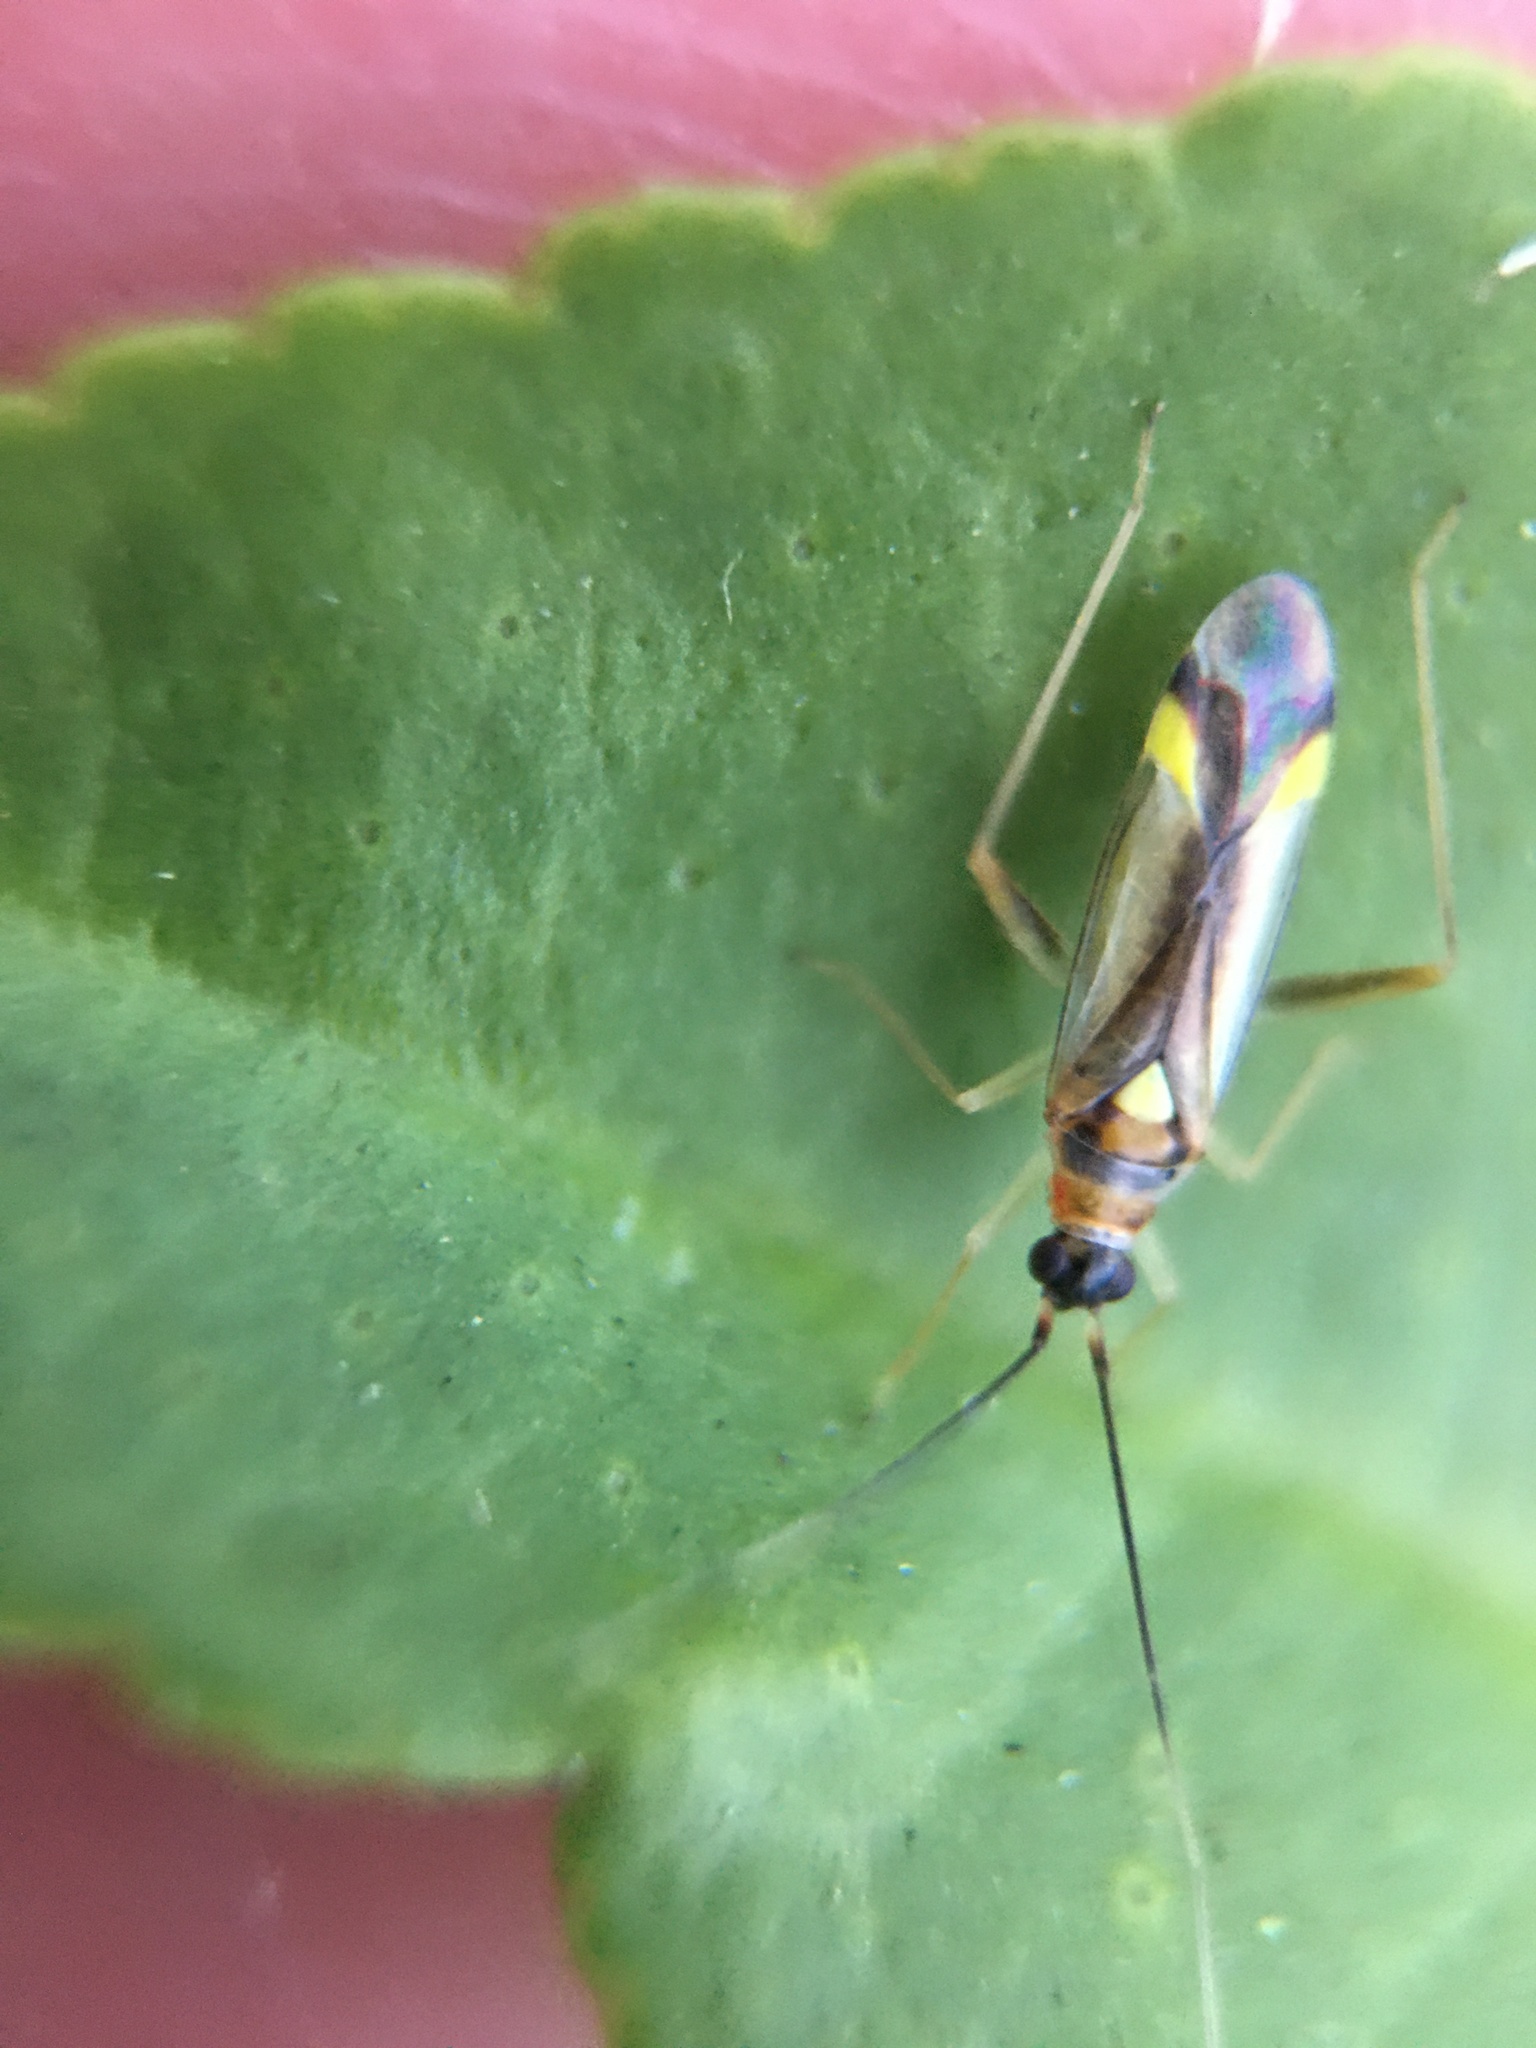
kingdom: Animalia
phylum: Arthropoda
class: Insecta
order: Hemiptera
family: Miridae
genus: Campyloneura
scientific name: Campyloneura virgula
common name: Predatory bug
